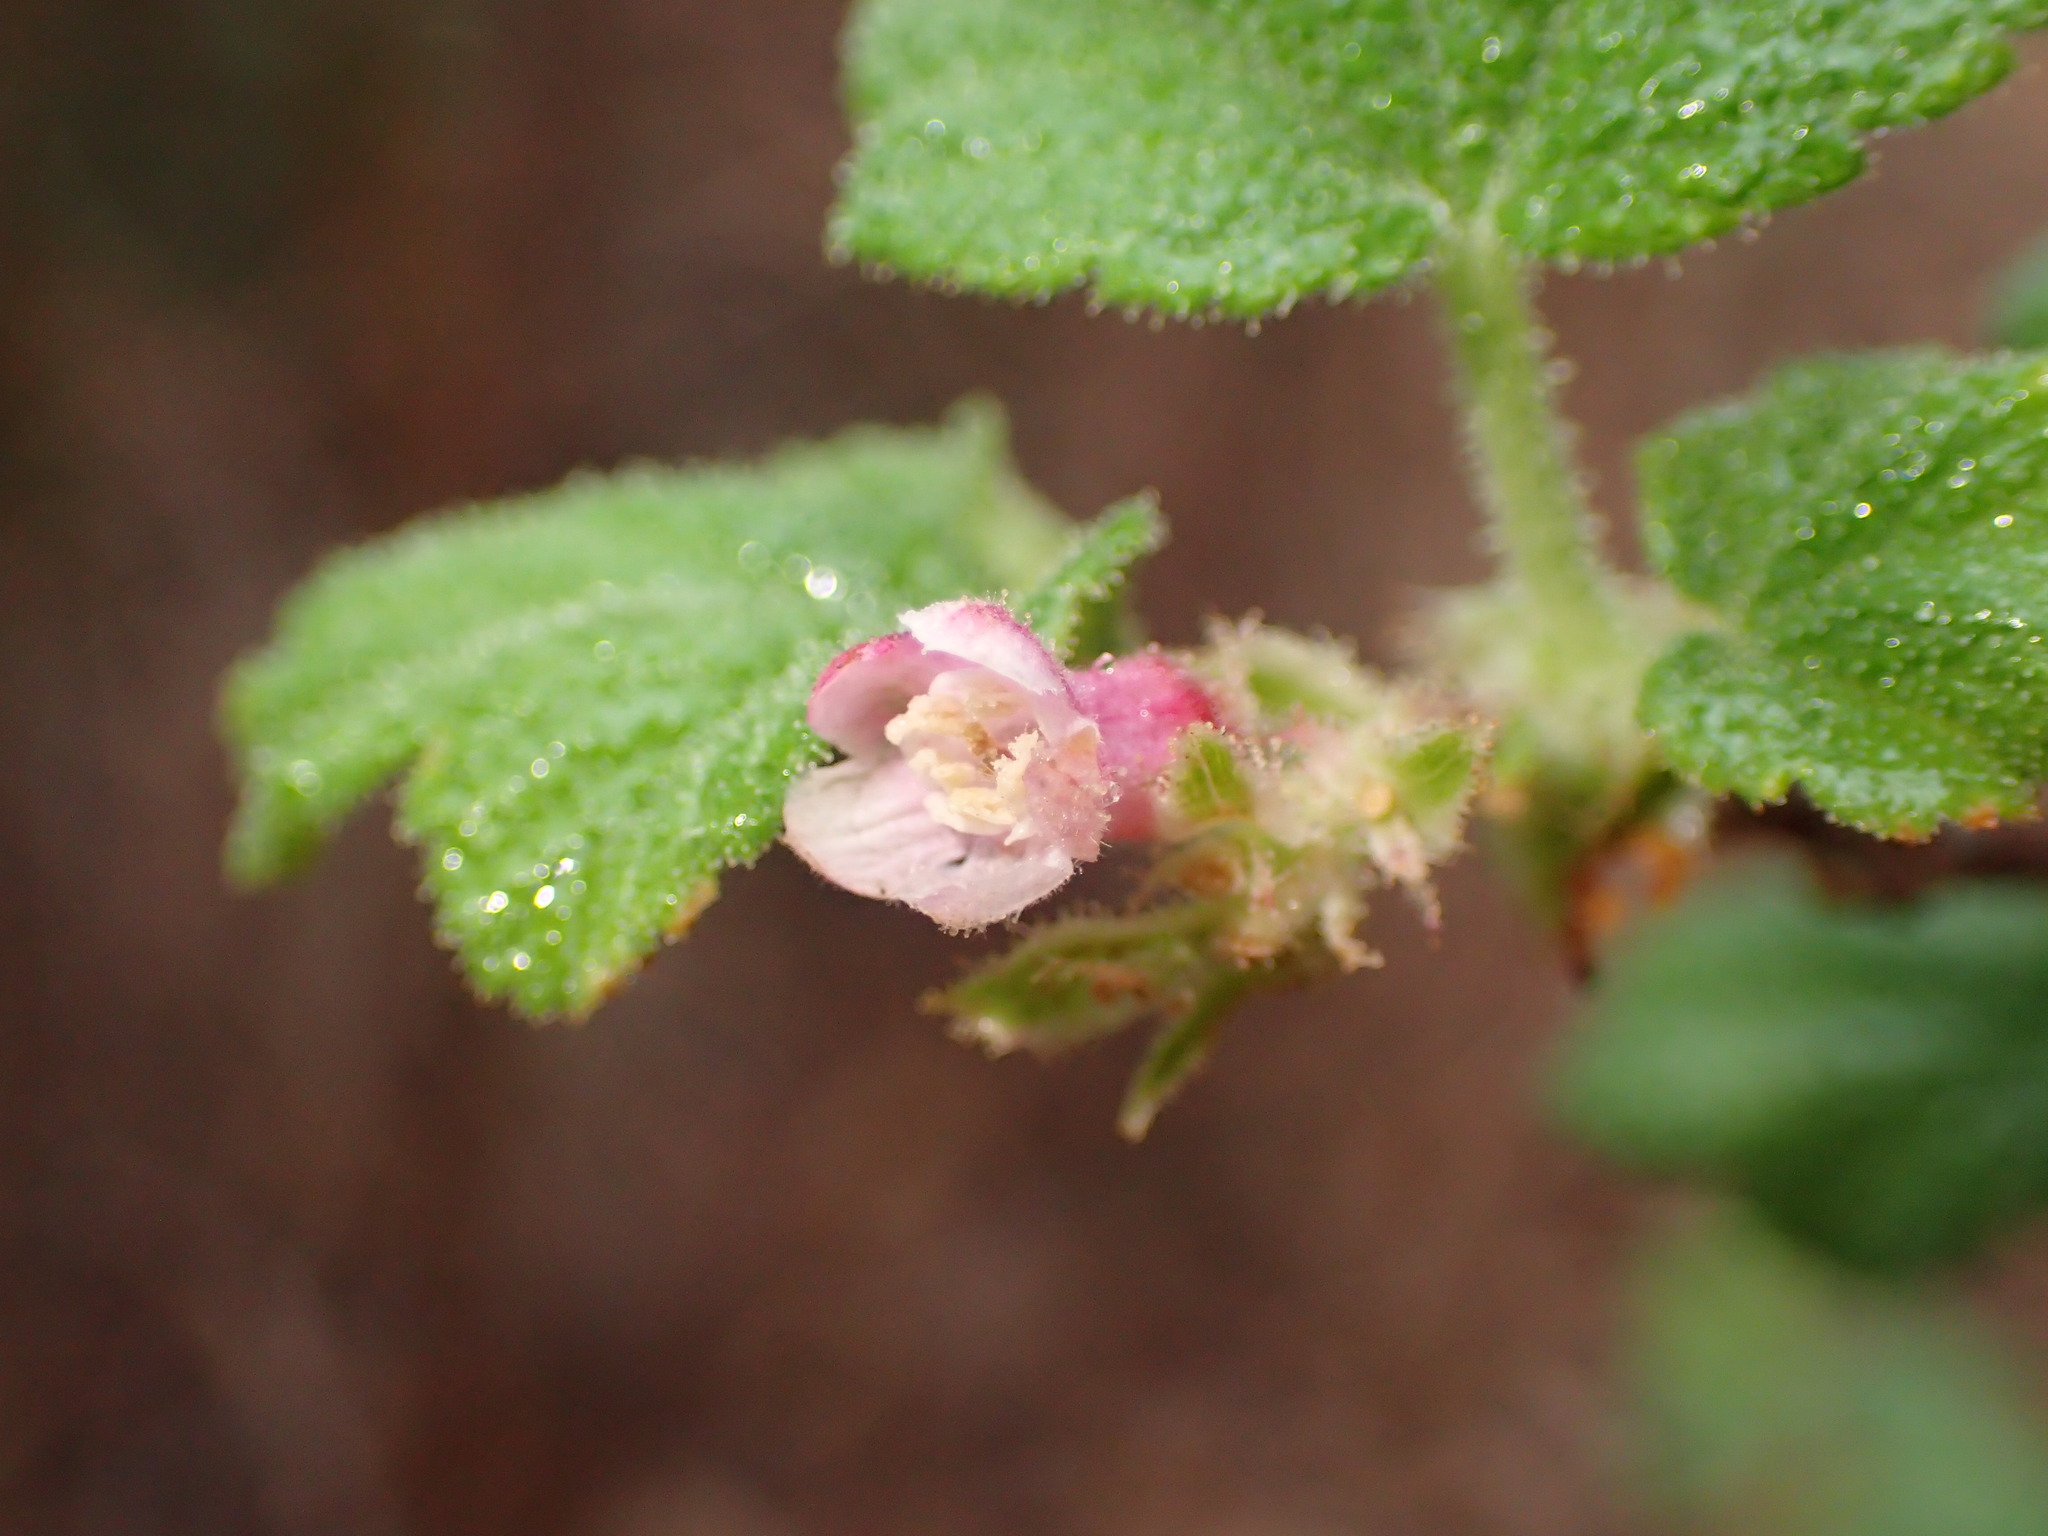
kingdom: Plantae
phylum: Tracheophyta
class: Magnoliopsida
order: Saxifragales
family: Grossulariaceae
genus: Ribes
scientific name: Ribes malvaceum
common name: Chaparral currant
